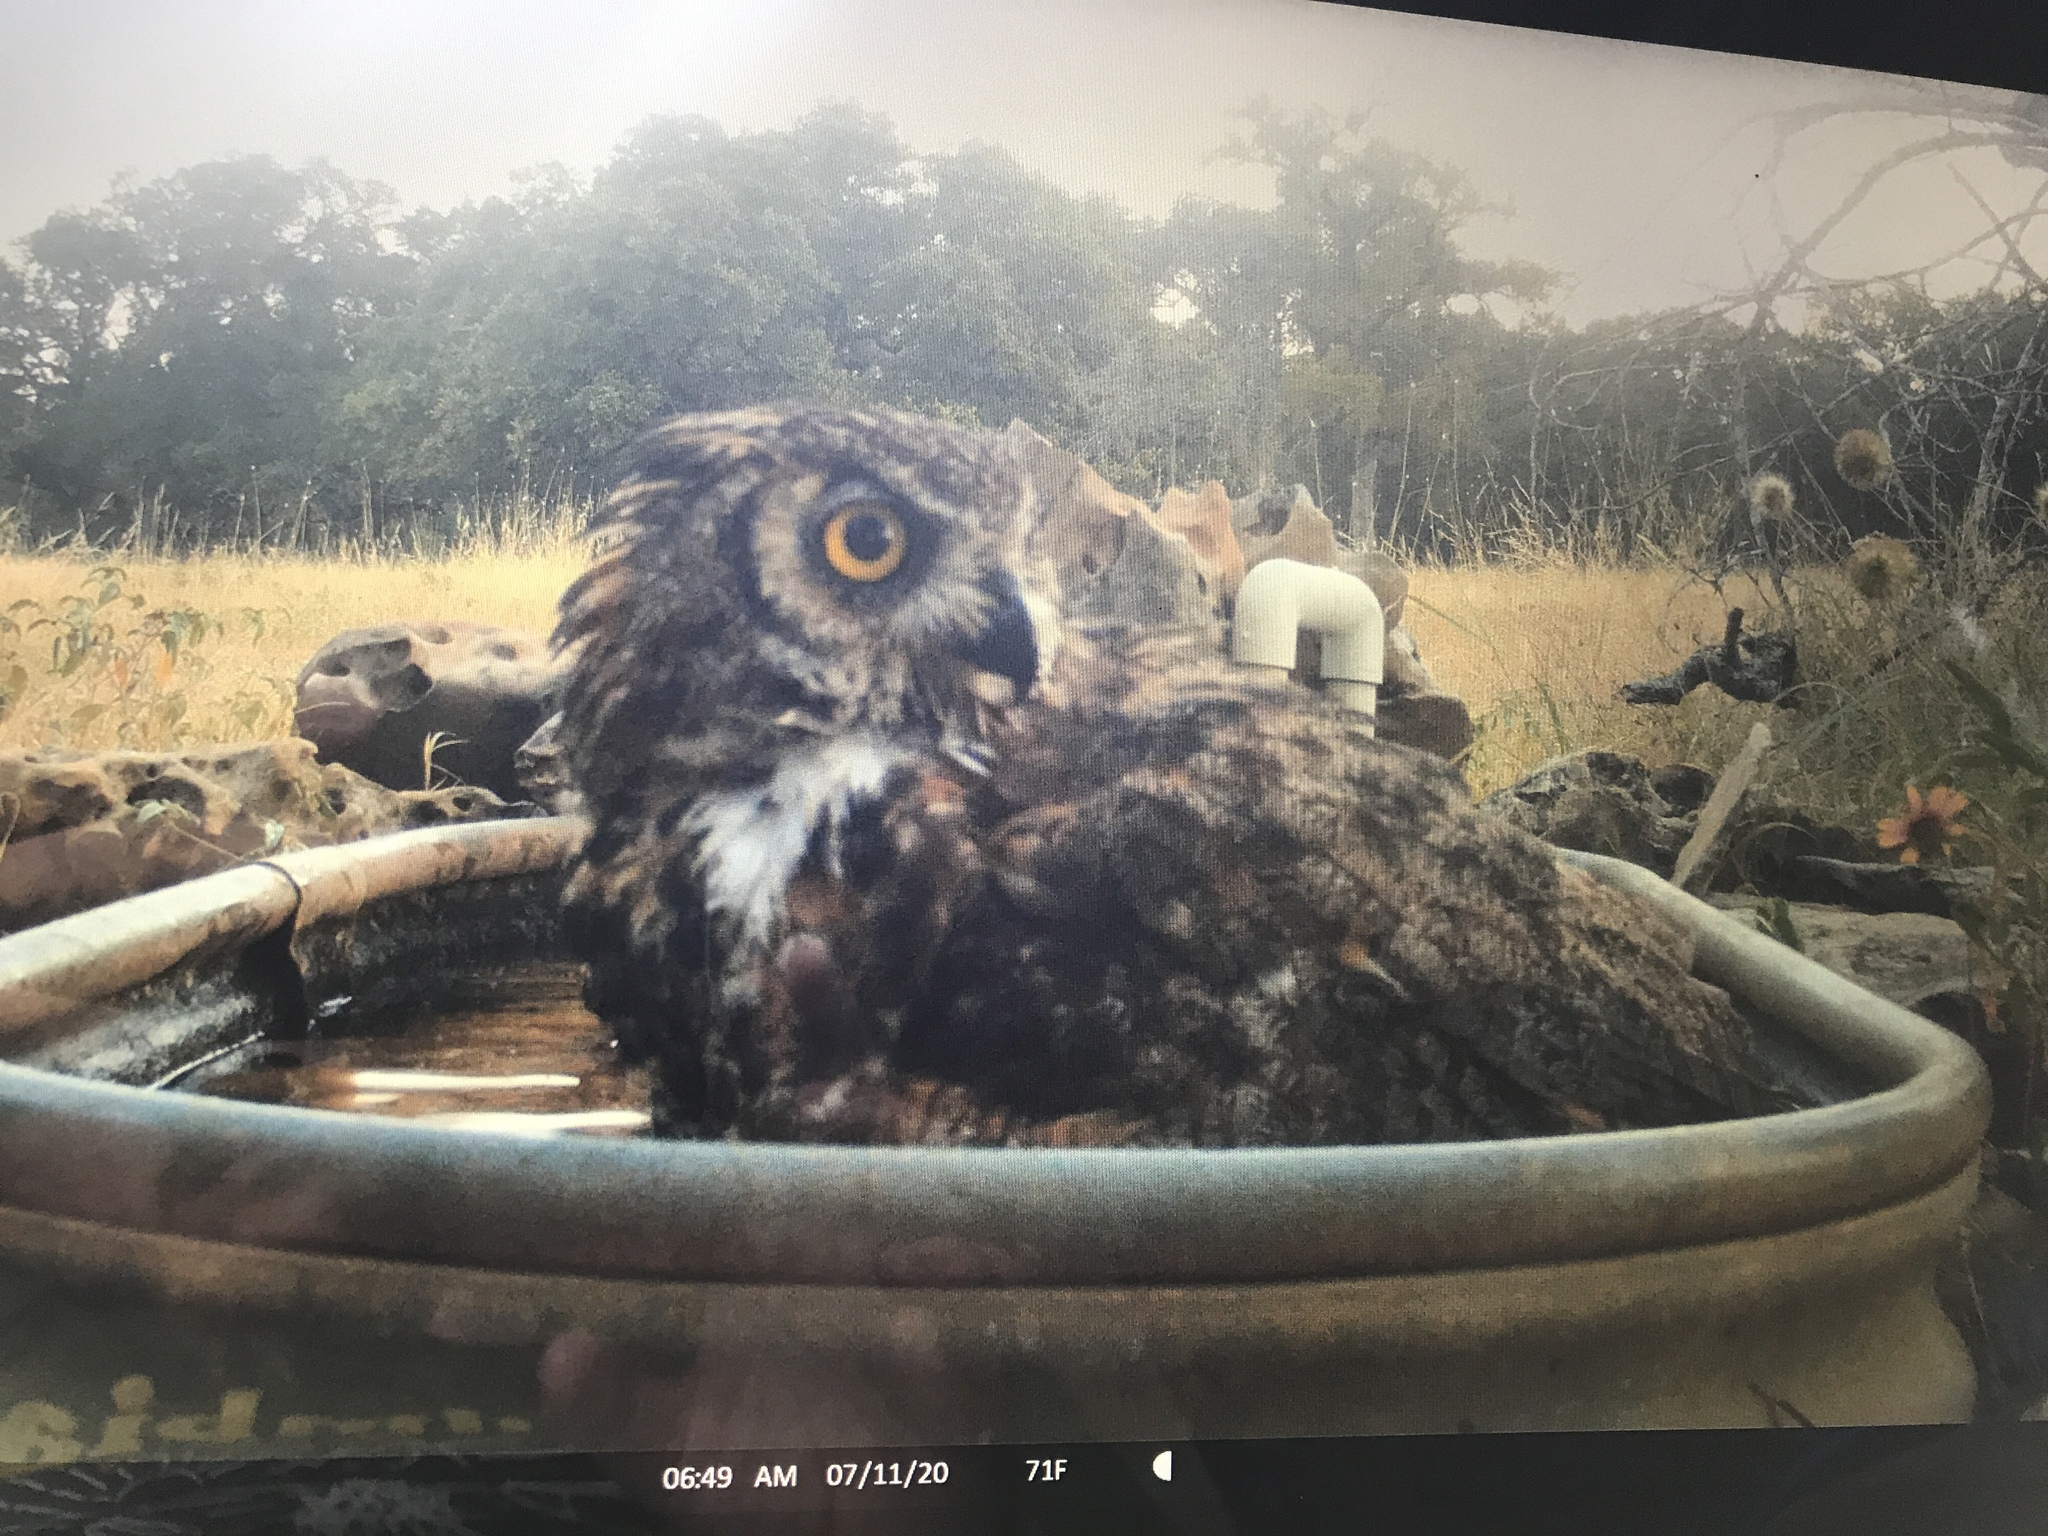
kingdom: Animalia
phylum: Chordata
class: Aves
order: Strigiformes
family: Strigidae
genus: Bubo
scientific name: Bubo virginianus
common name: Great horned owl
